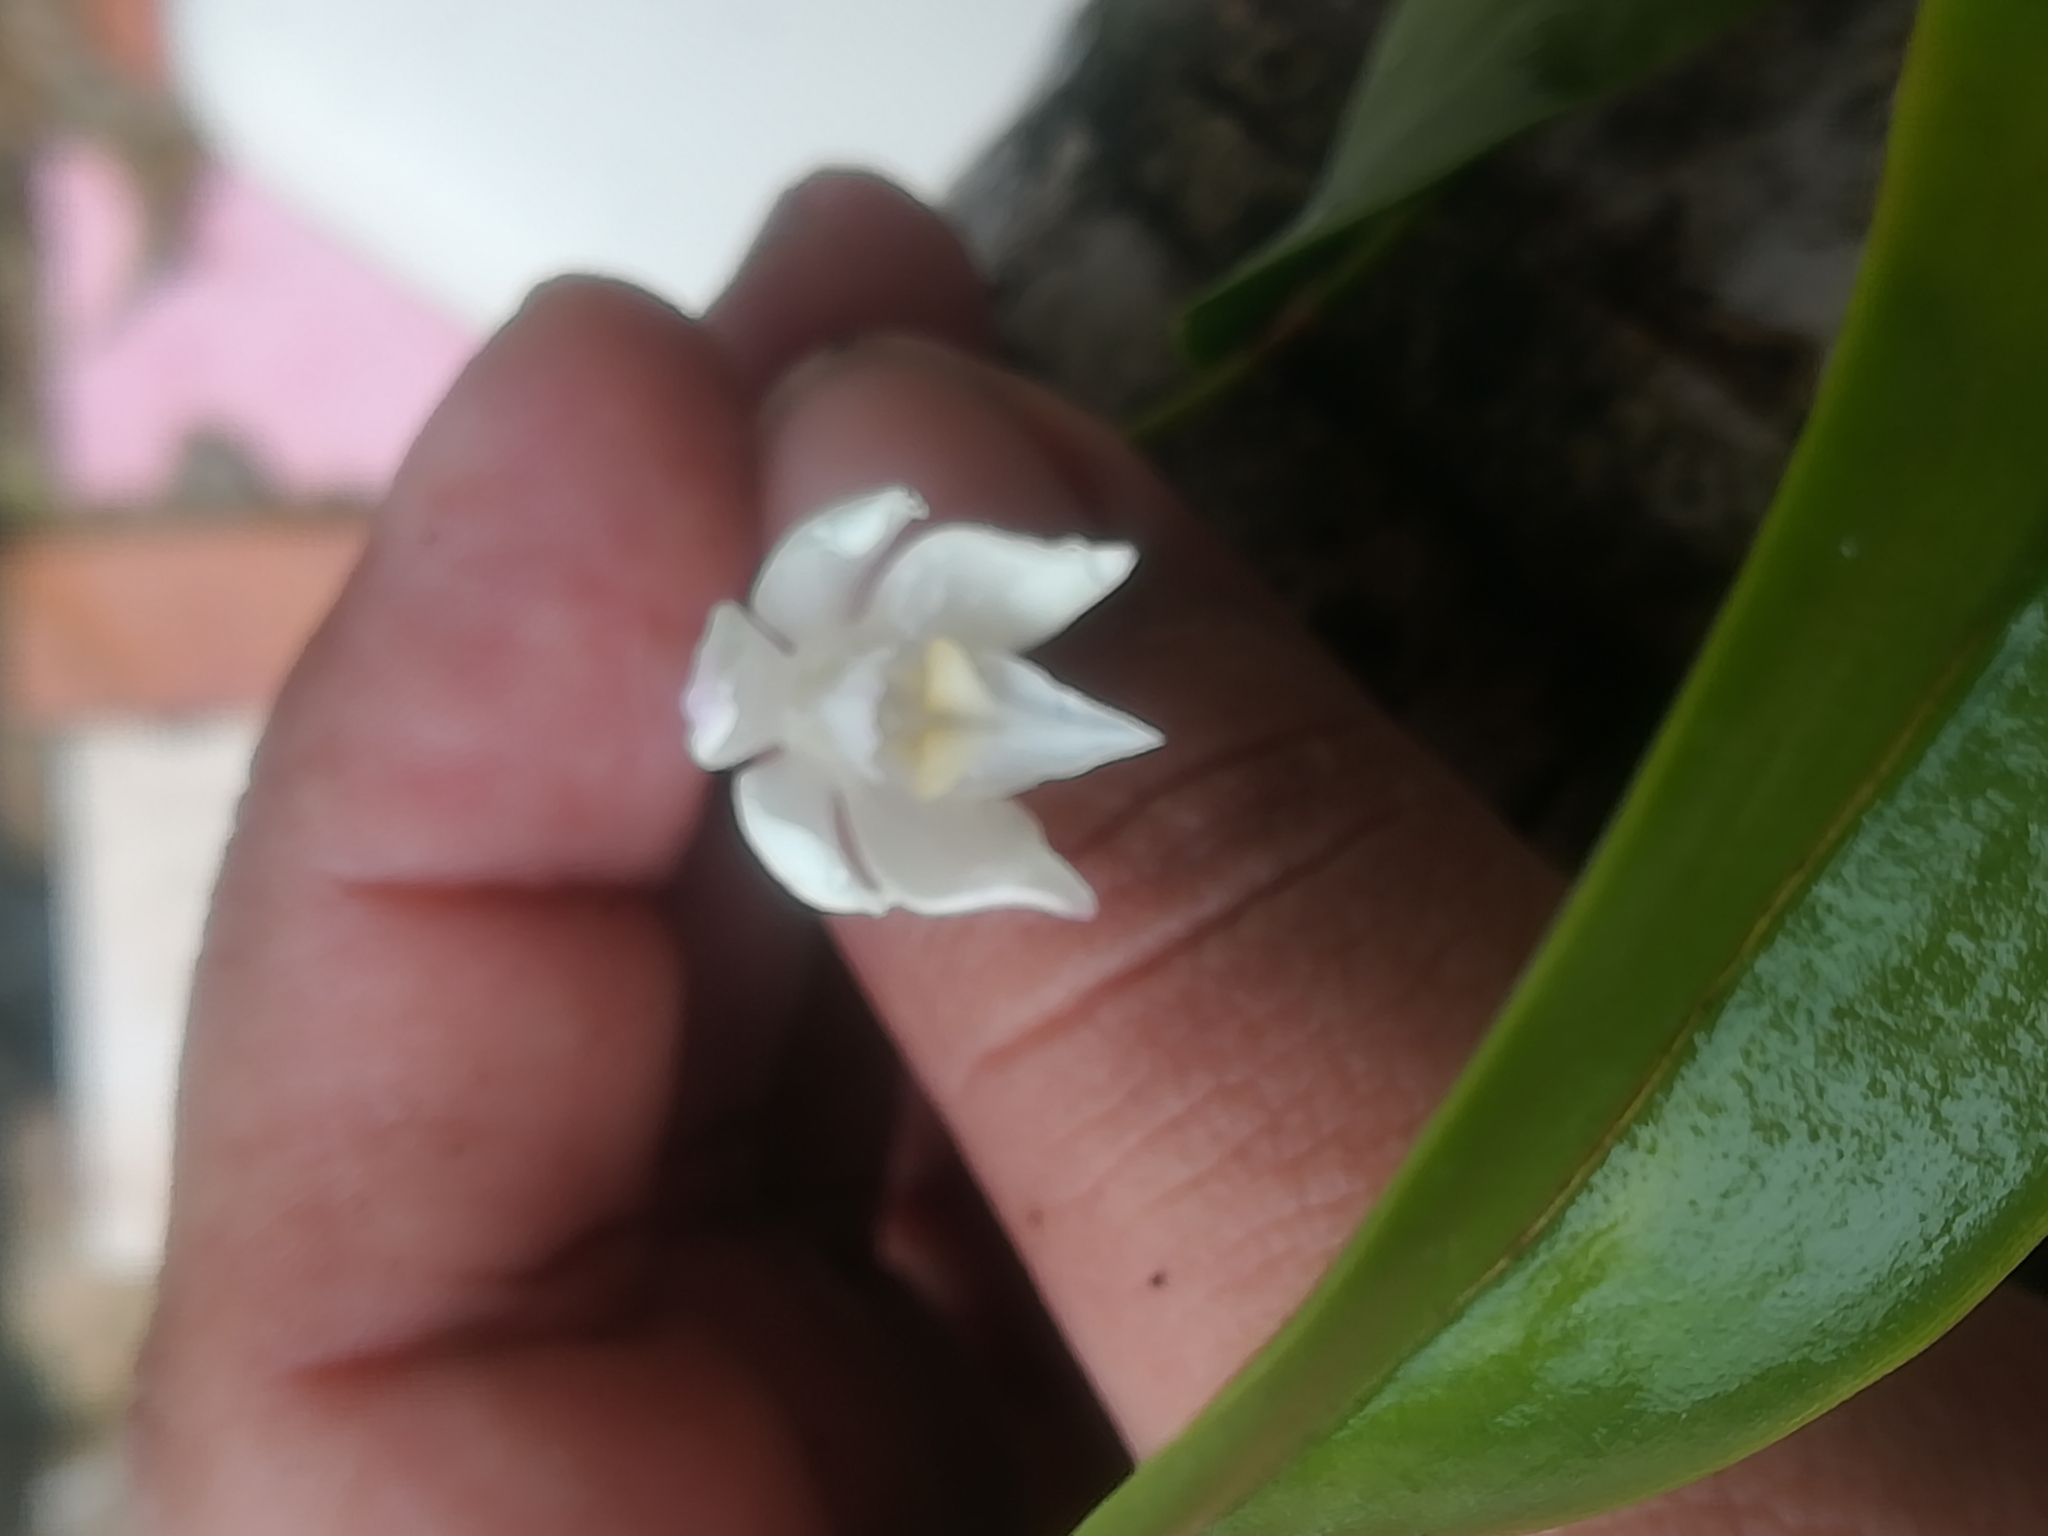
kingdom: Plantae
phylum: Tracheophyta
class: Liliopsida
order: Asparagales
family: Orchidaceae
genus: Caularthron
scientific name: Caularthron bilamellatum
